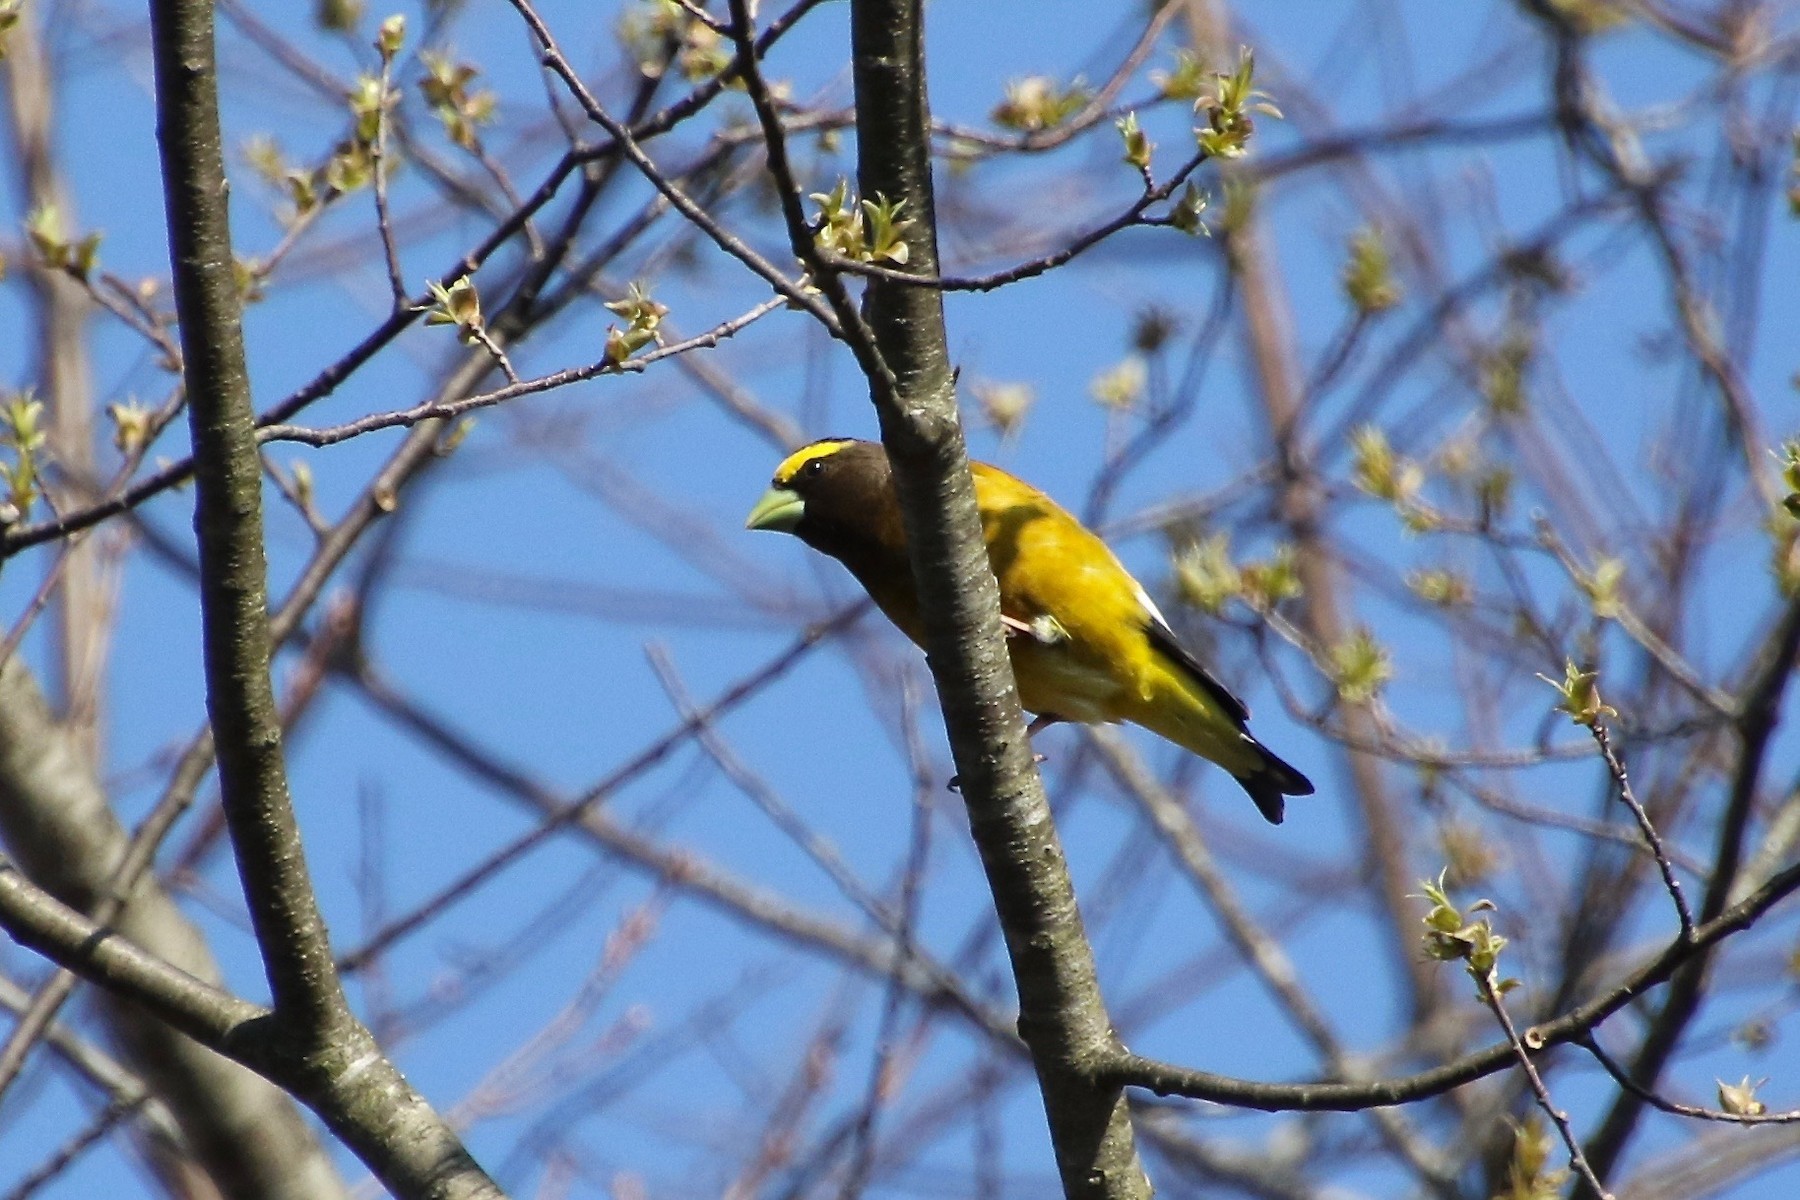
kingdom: Animalia
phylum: Chordata
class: Aves
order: Passeriformes
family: Fringillidae
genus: Hesperiphona
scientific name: Hesperiphona vespertina
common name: Evening grosbeak
